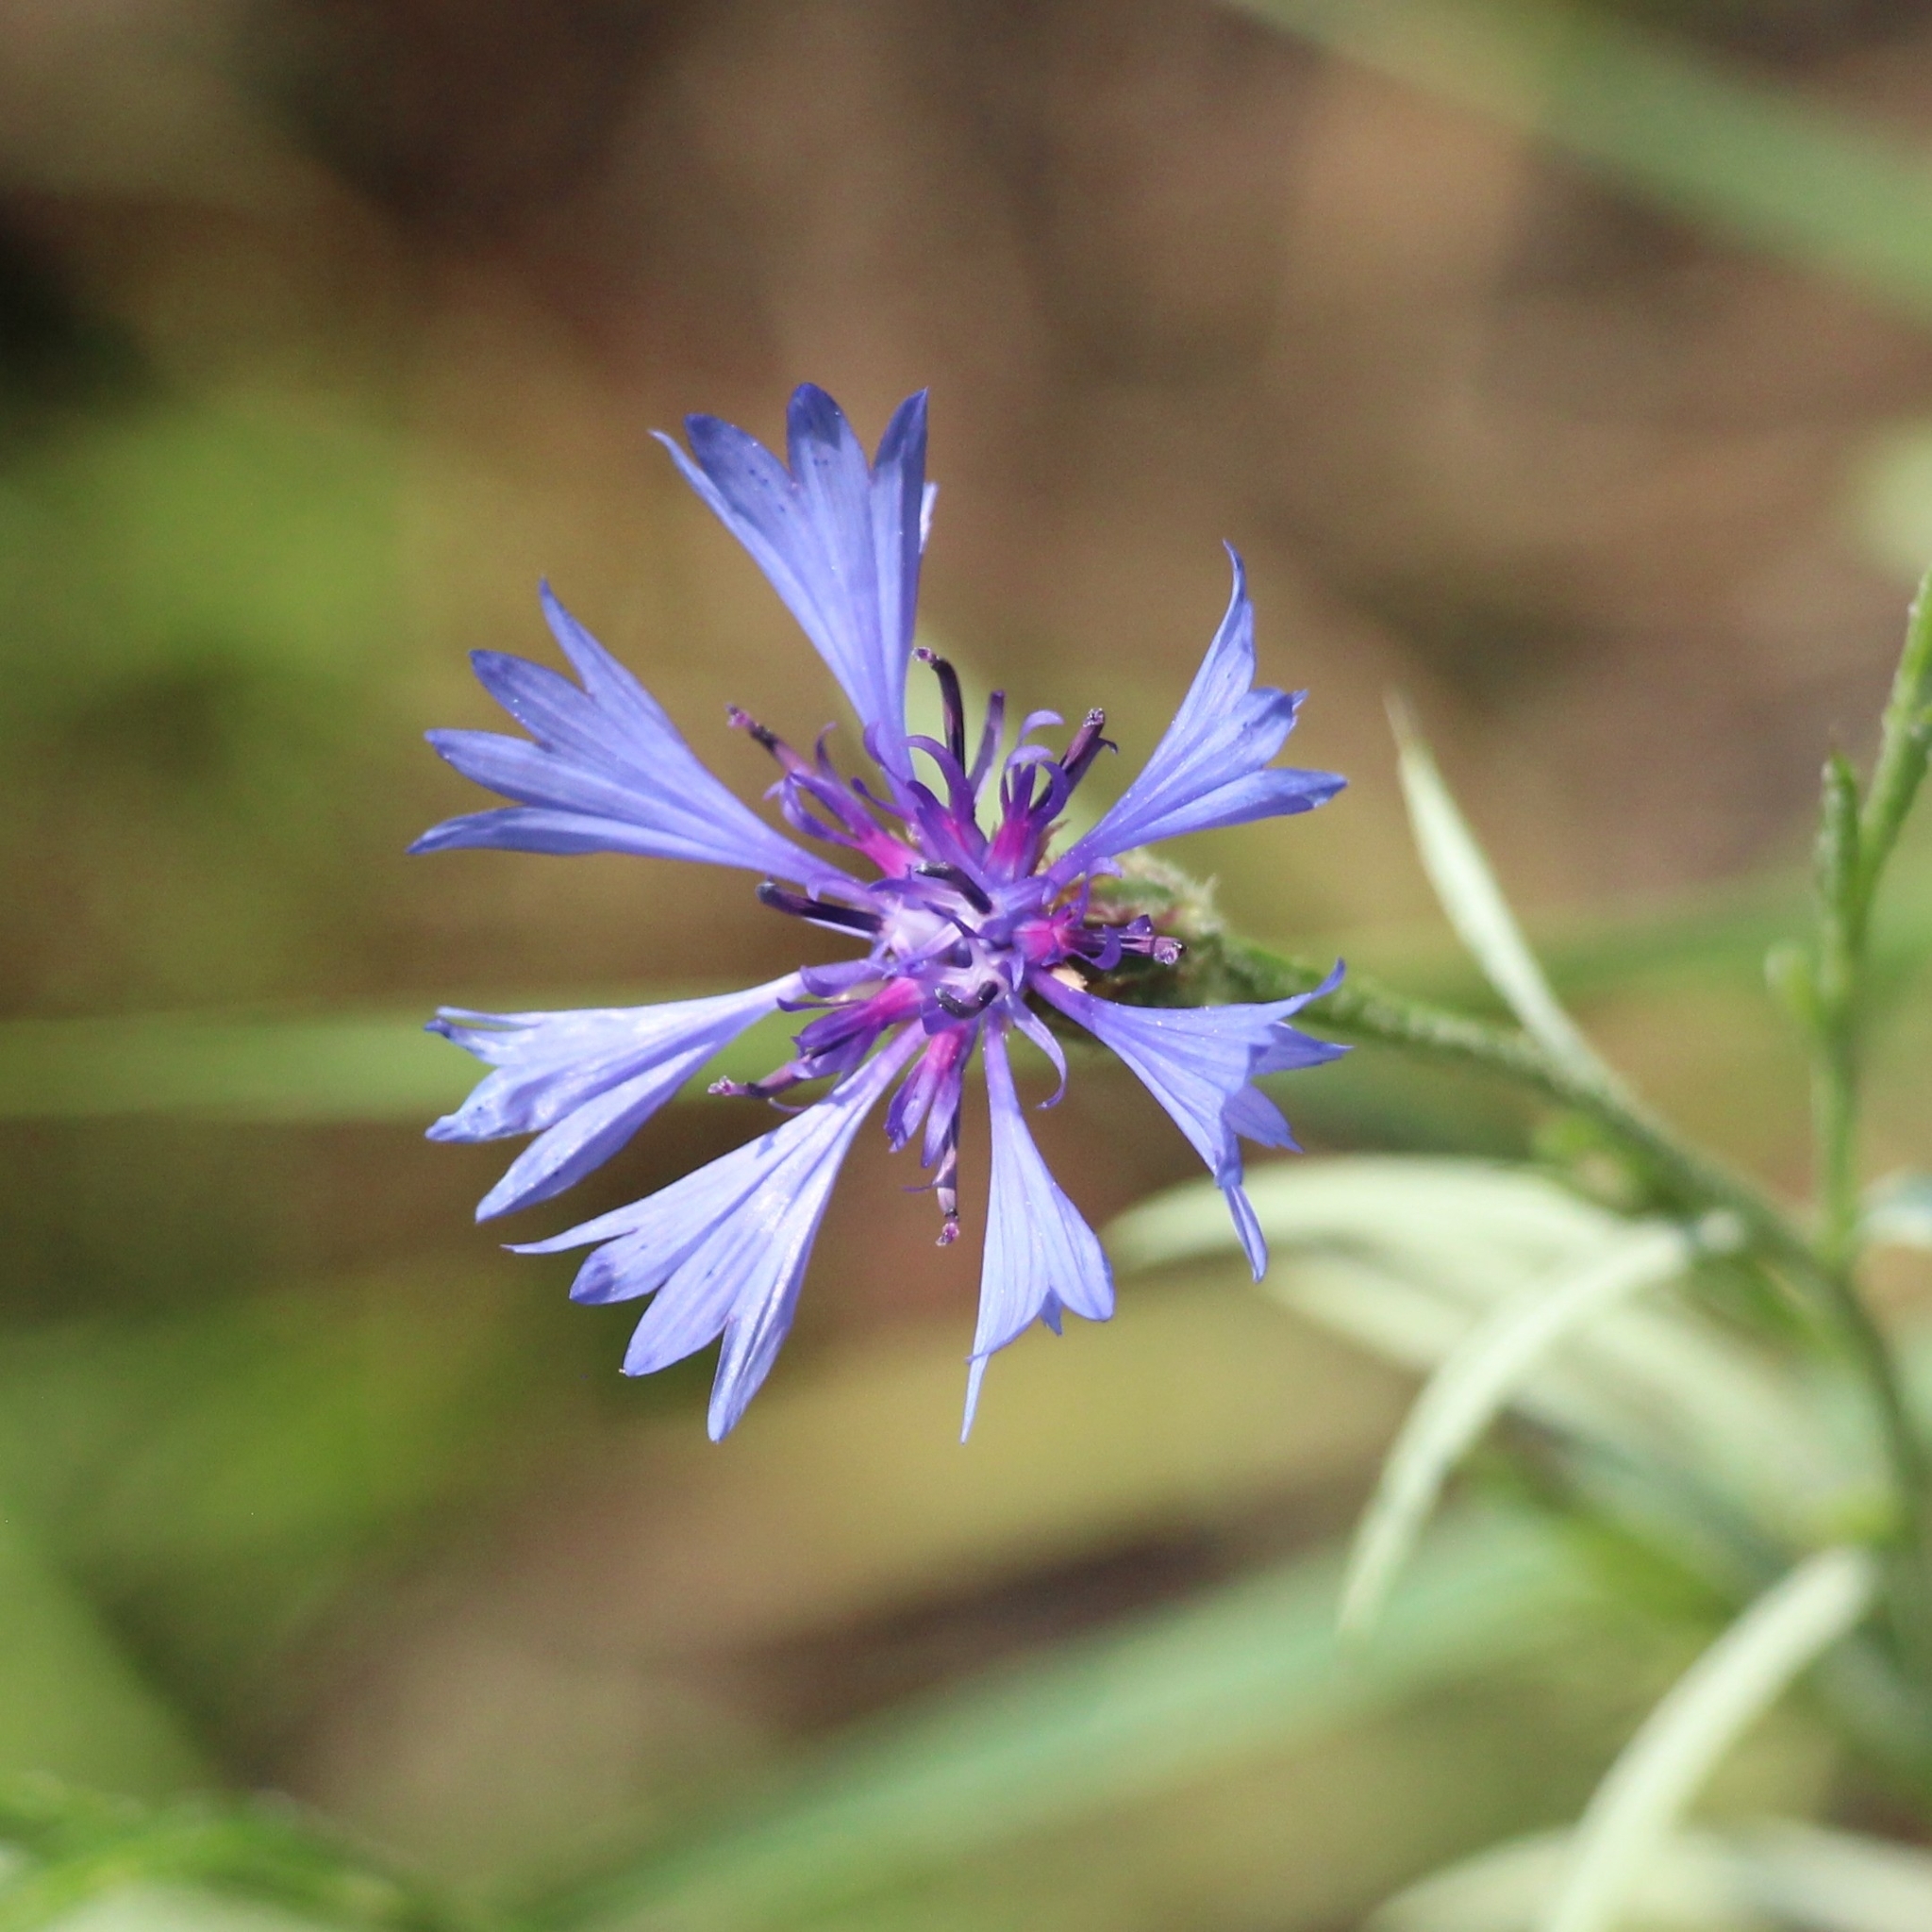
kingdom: Plantae
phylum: Tracheophyta
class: Magnoliopsida
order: Asterales
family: Asteraceae
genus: Centaurea
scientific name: Centaurea cyanus
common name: Cornflower
